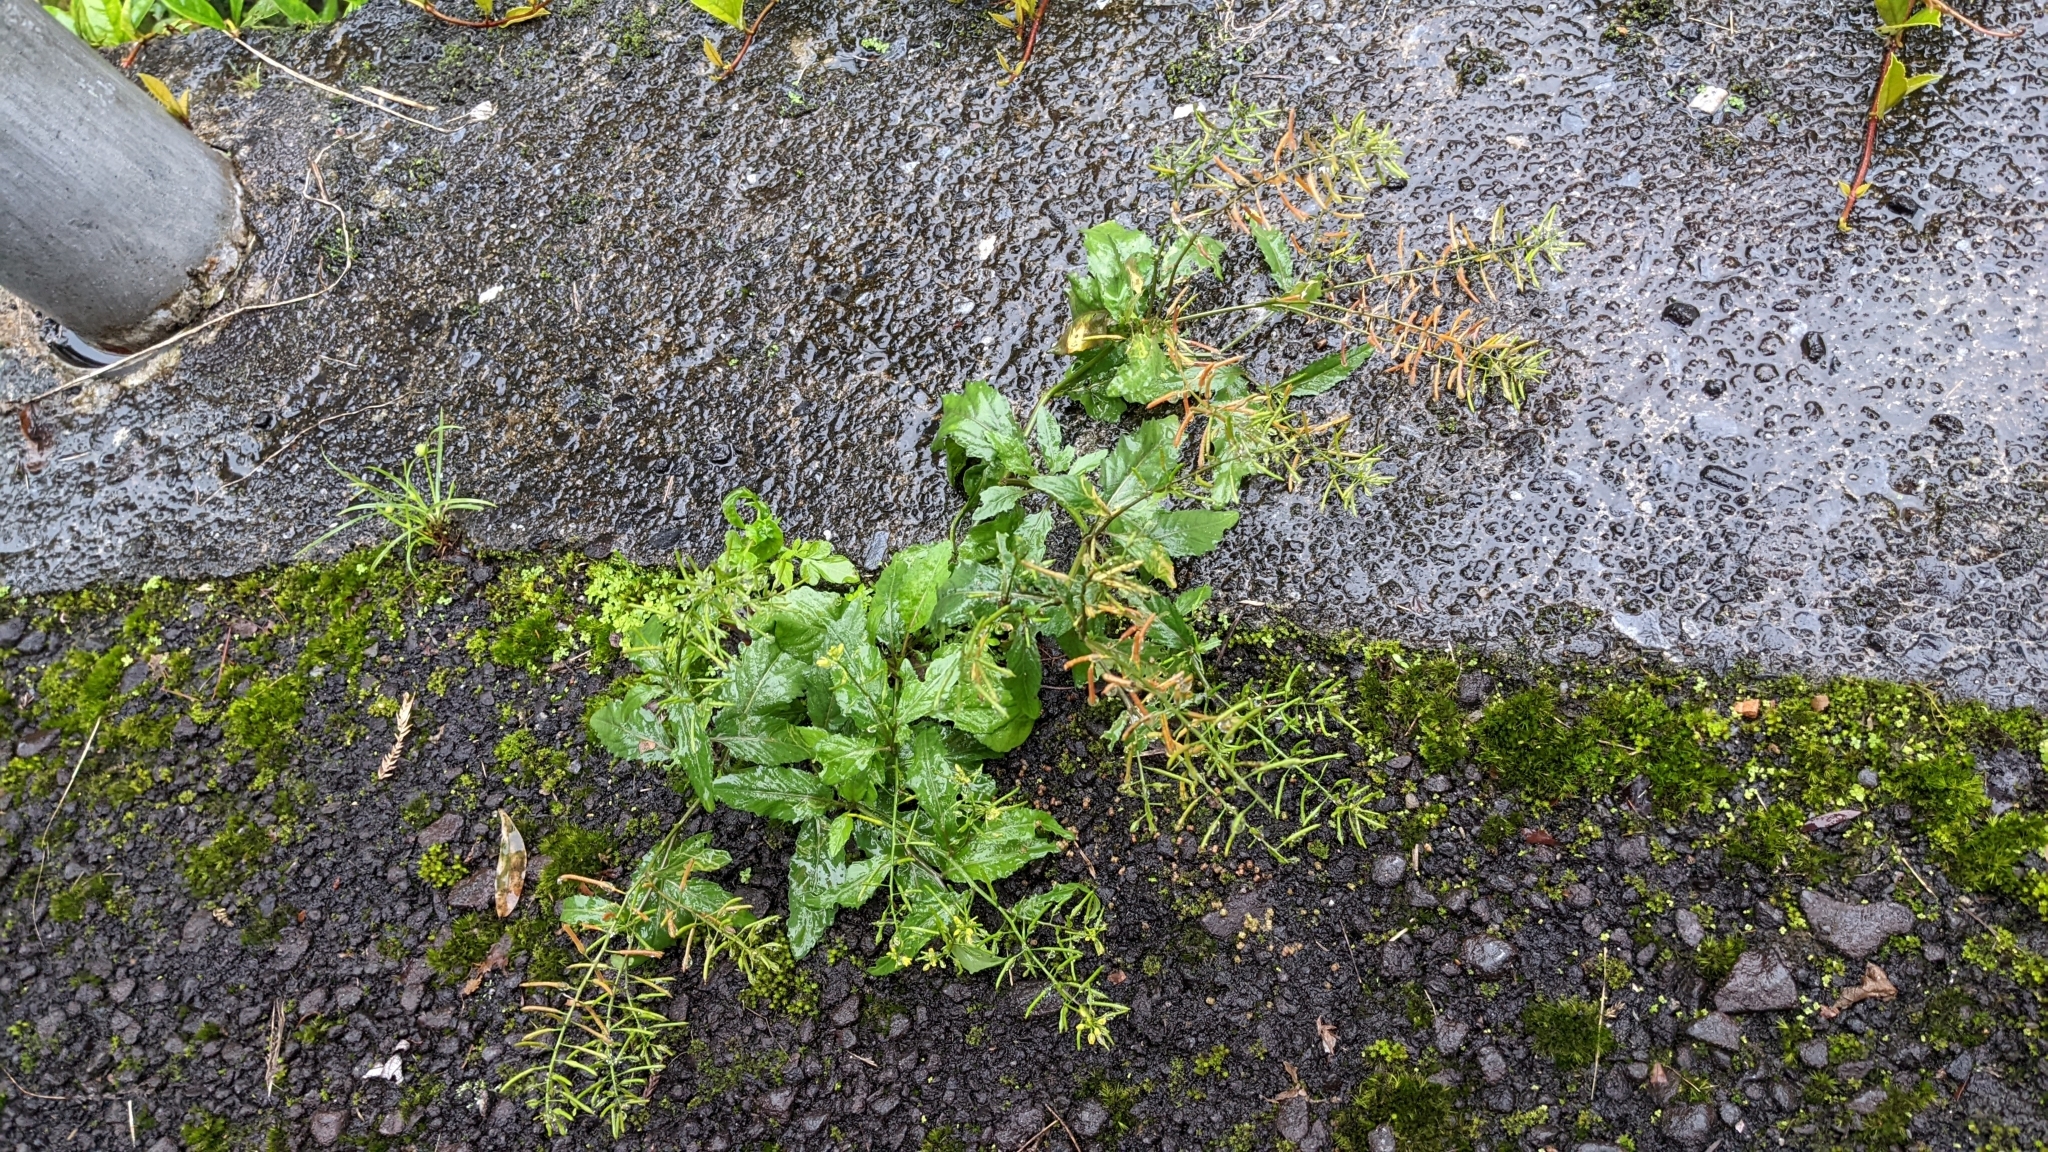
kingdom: Plantae
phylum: Tracheophyta
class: Magnoliopsida
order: Brassicales
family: Brassicaceae
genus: Rorippa
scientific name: Rorippa indica
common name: Variableleaf yellowcress
